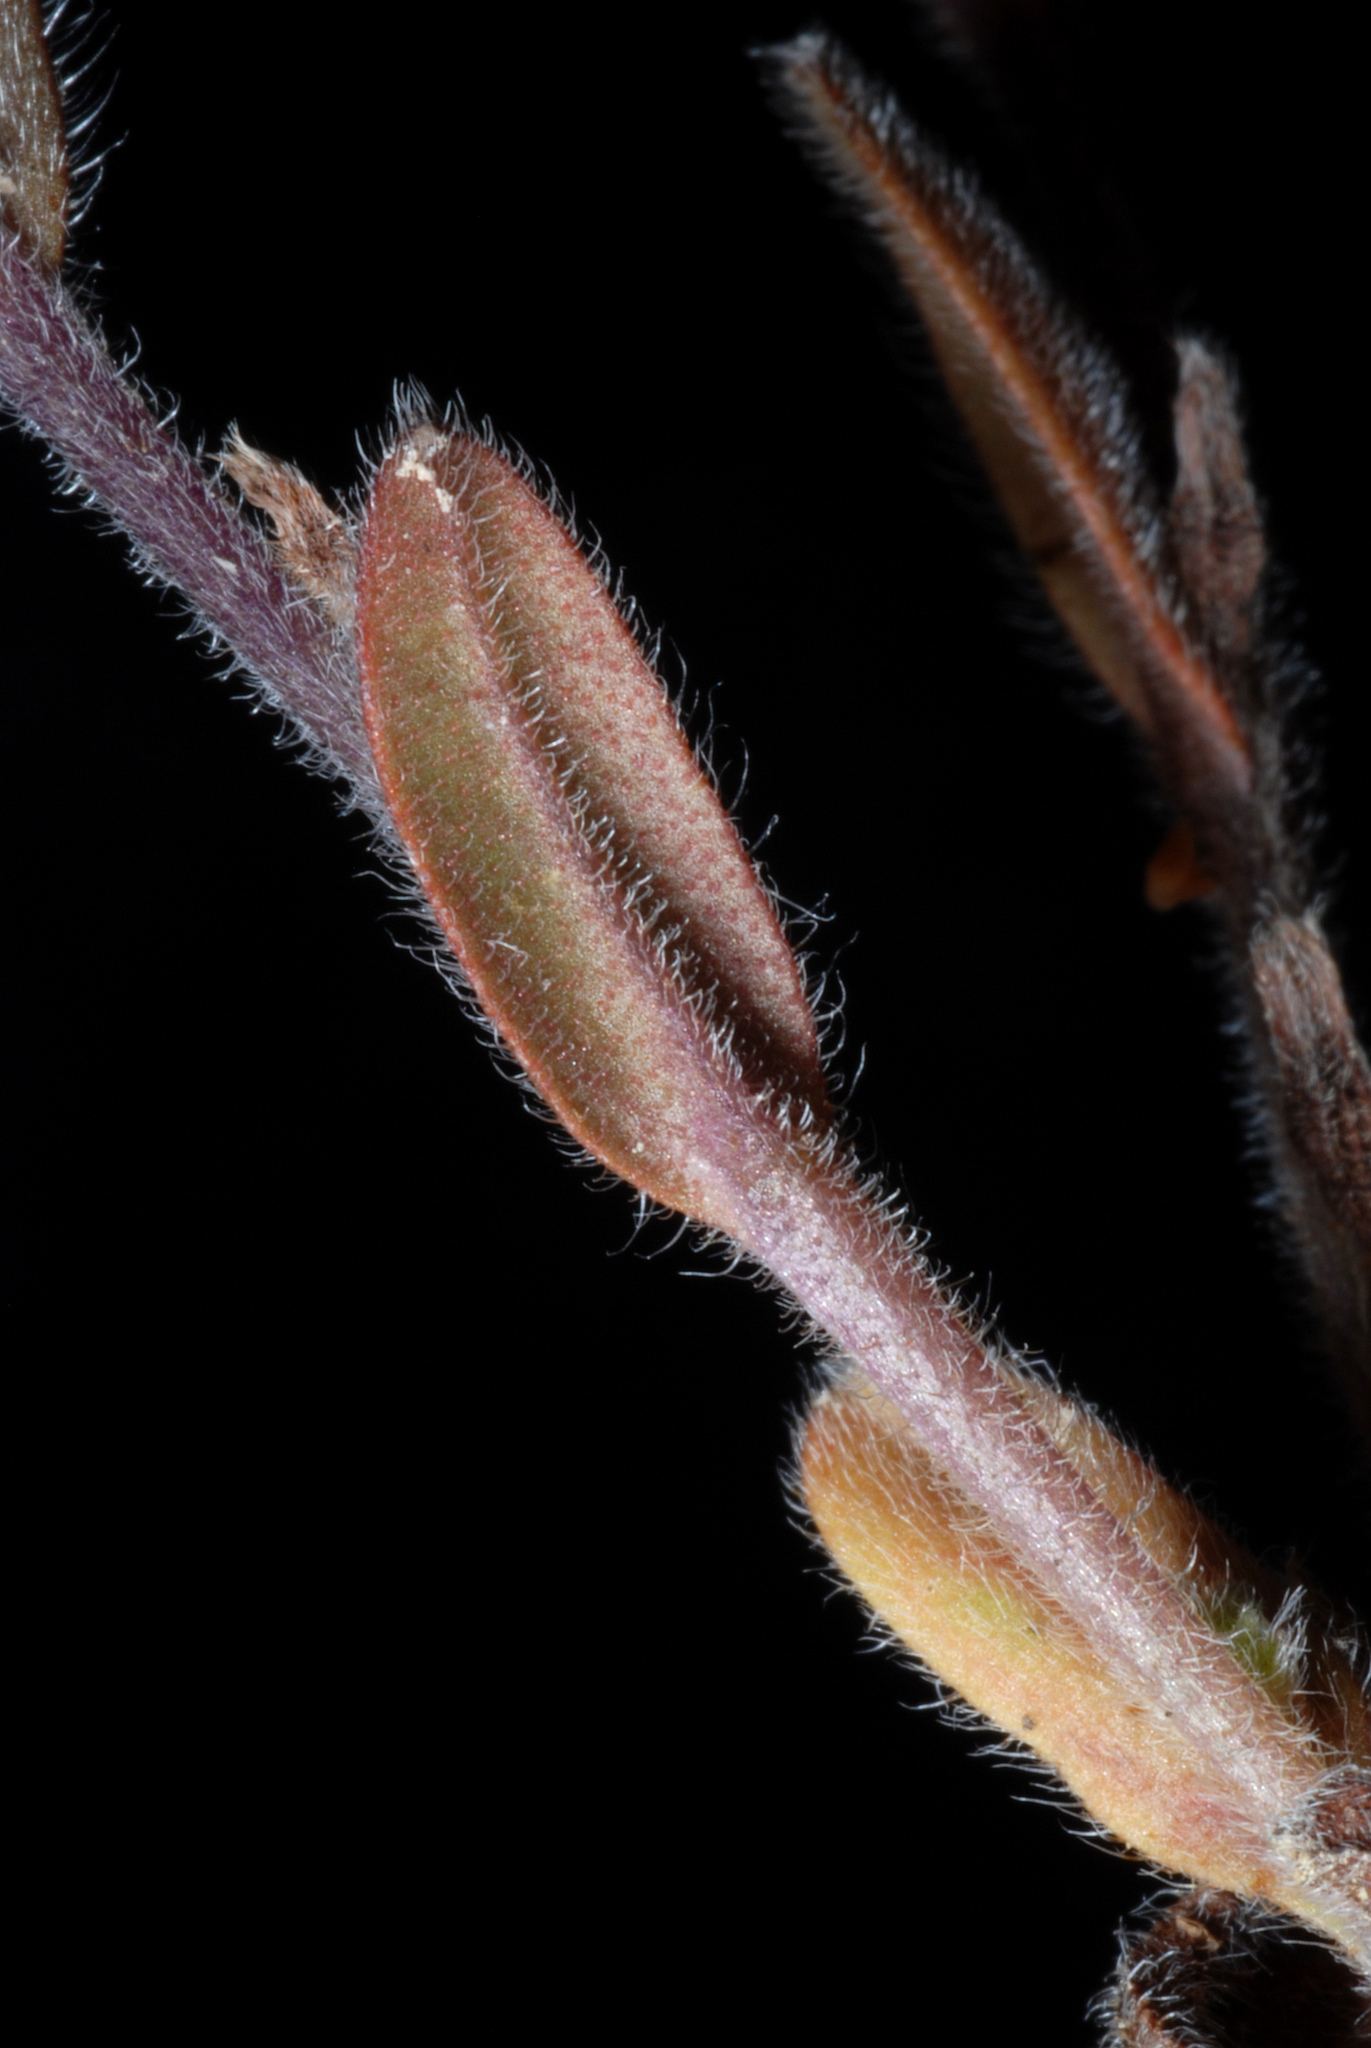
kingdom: Plantae
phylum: Tracheophyta
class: Magnoliopsida
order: Boraginales
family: Boraginaceae
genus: Myosotis
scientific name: Myosotis stricta
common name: Strict forget-me-not
